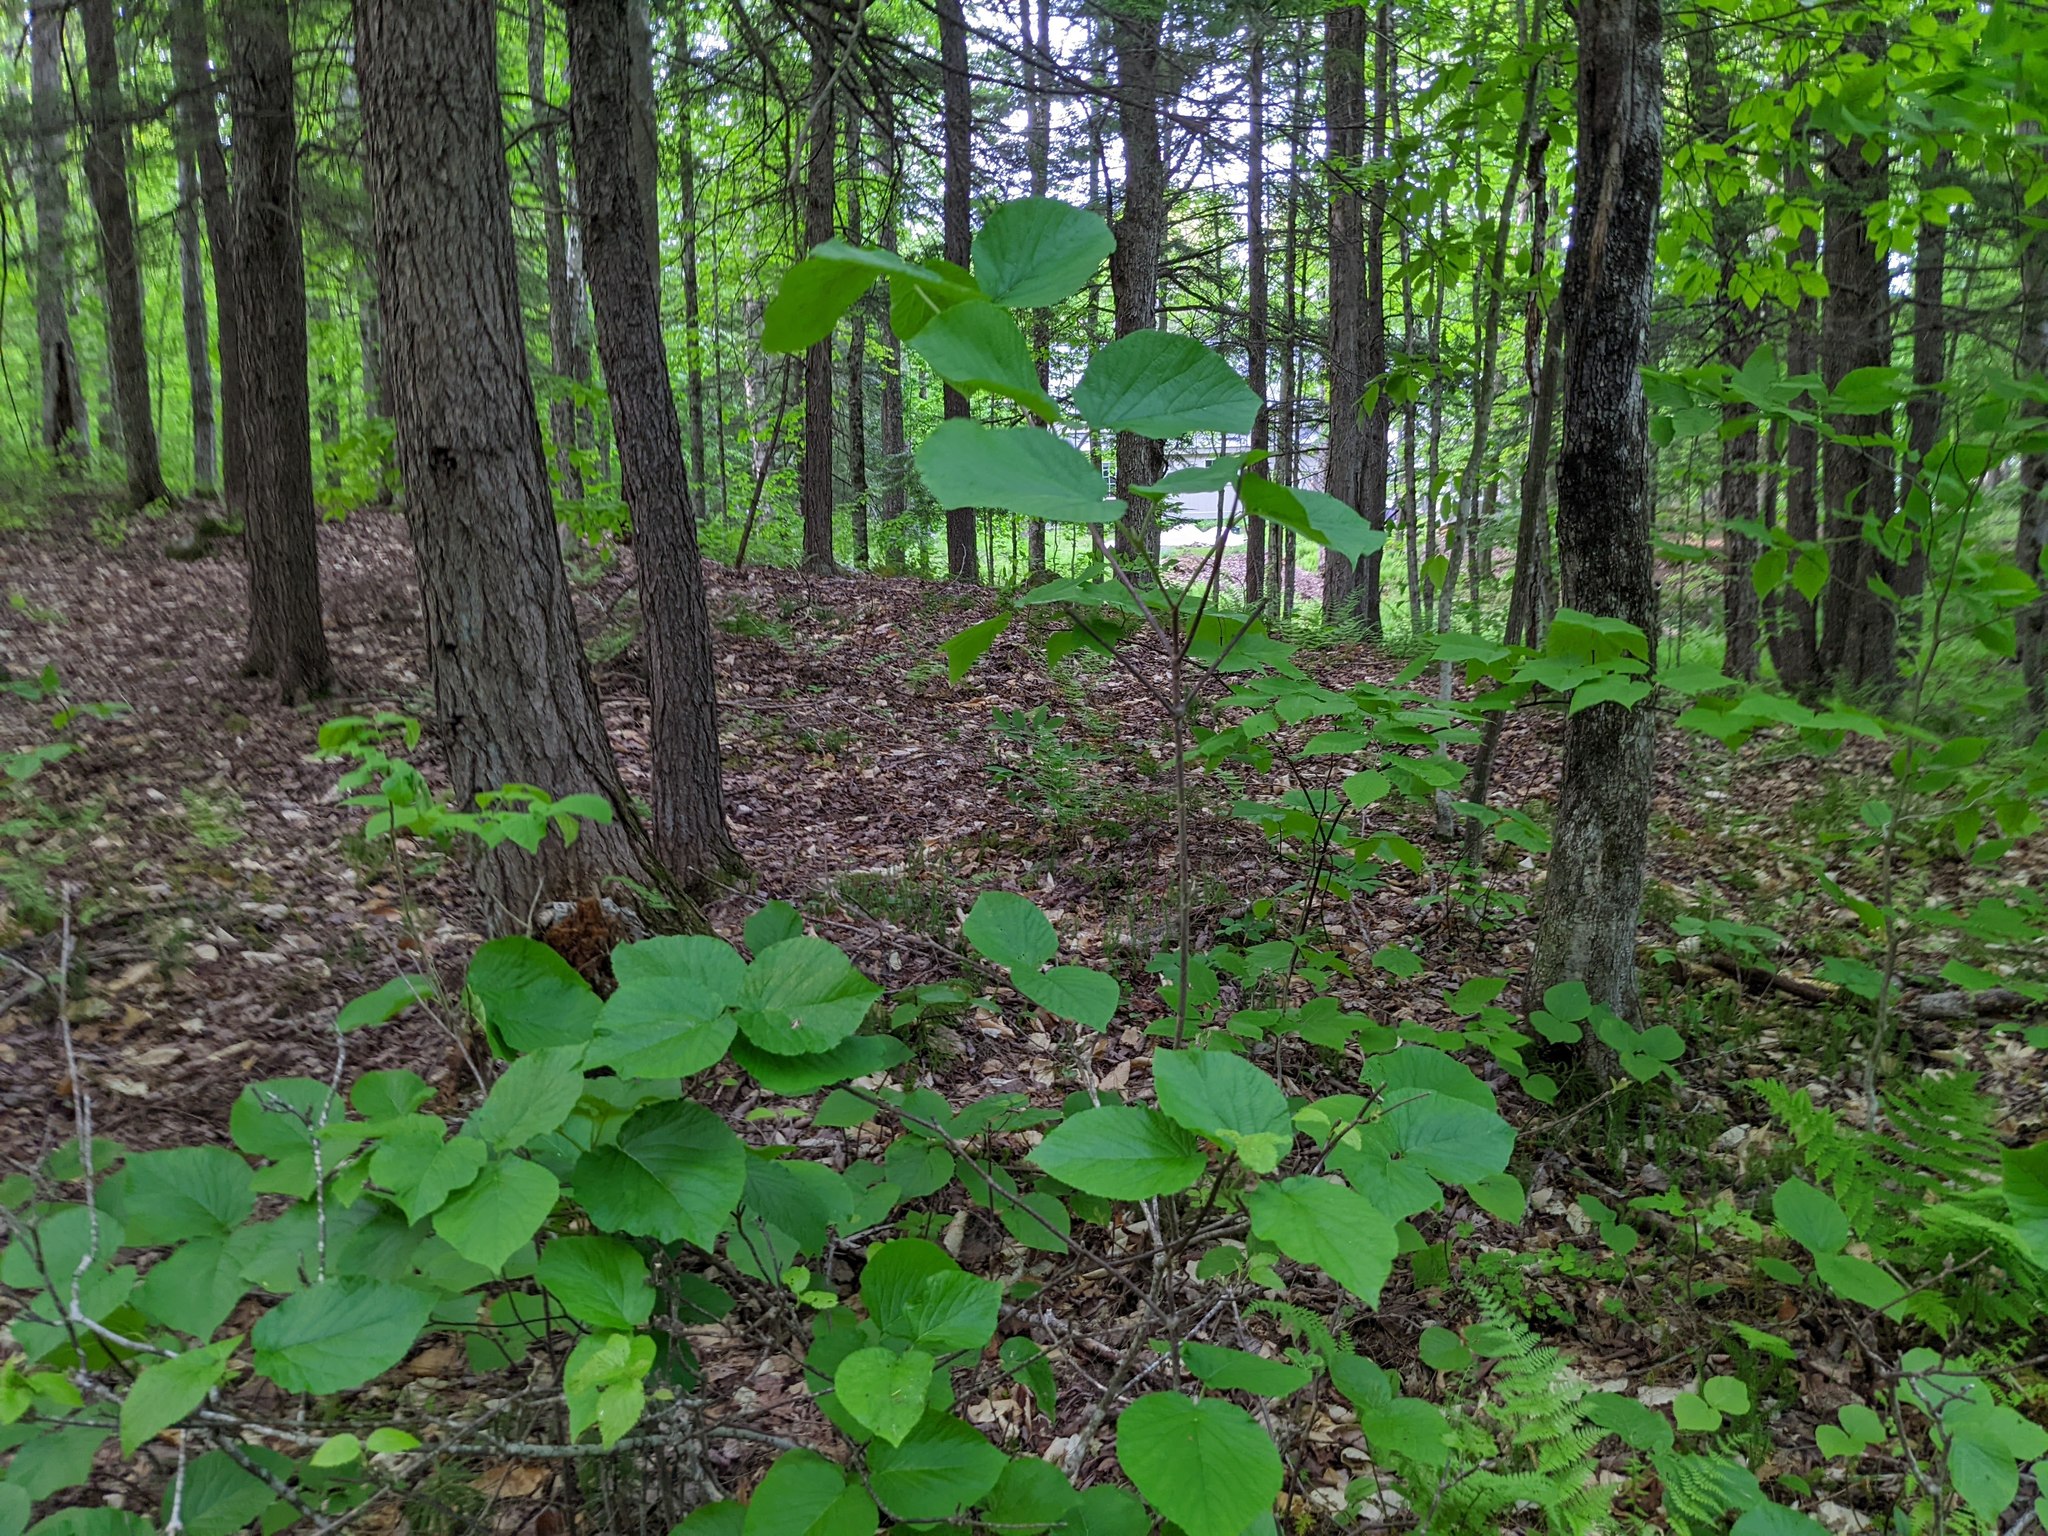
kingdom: Plantae
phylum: Tracheophyta
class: Magnoliopsida
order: Dipsacales
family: Viburnaceae
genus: Viburnum
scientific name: Viburnum lantanoides
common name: Hobblebush
